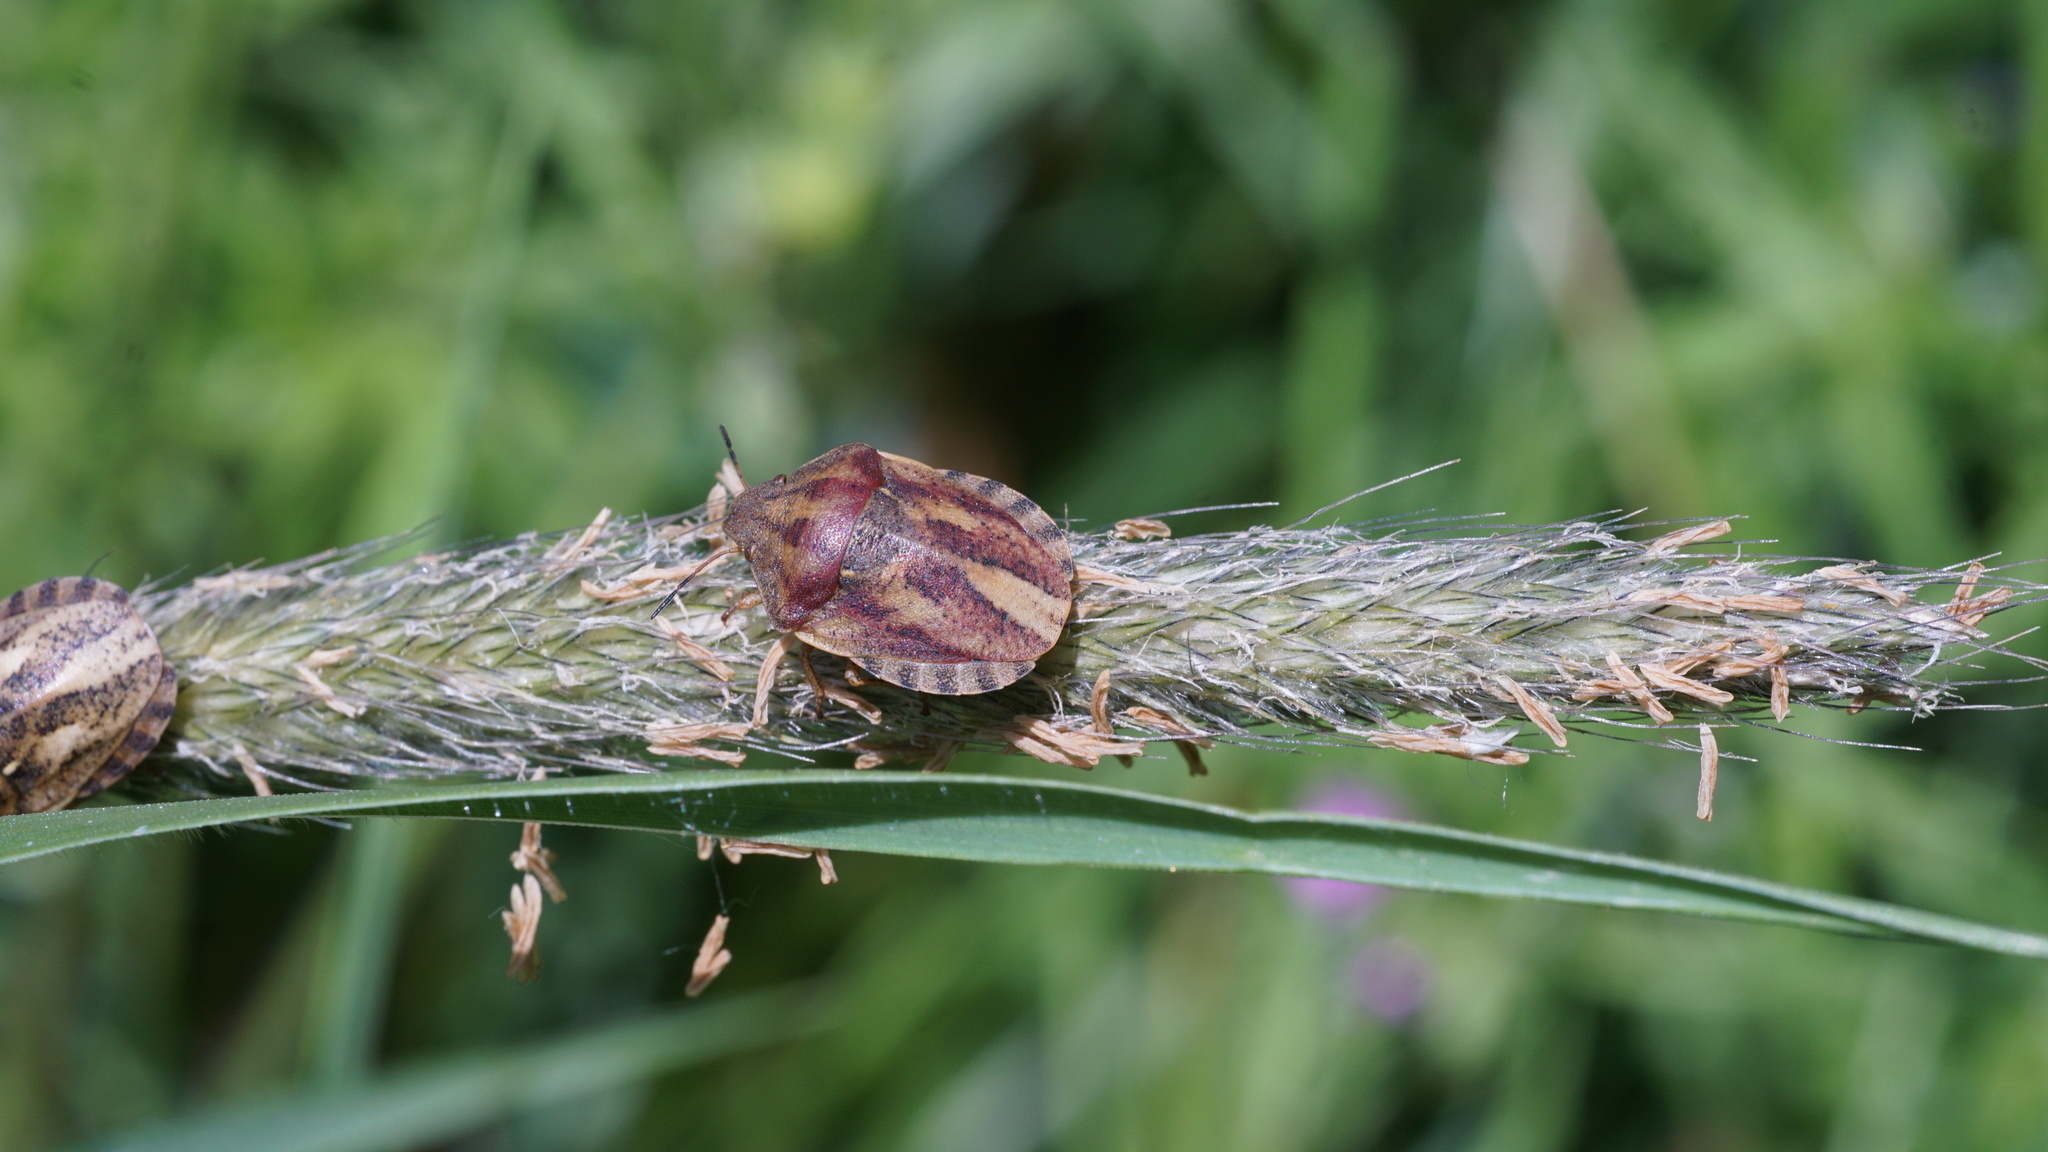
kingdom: Animalia
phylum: Arthropoda
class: Insecta
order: Hemiptera
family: Scutelleridae
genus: Eurygaster
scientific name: Eurygaster testudinaria
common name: Tortoise bug
